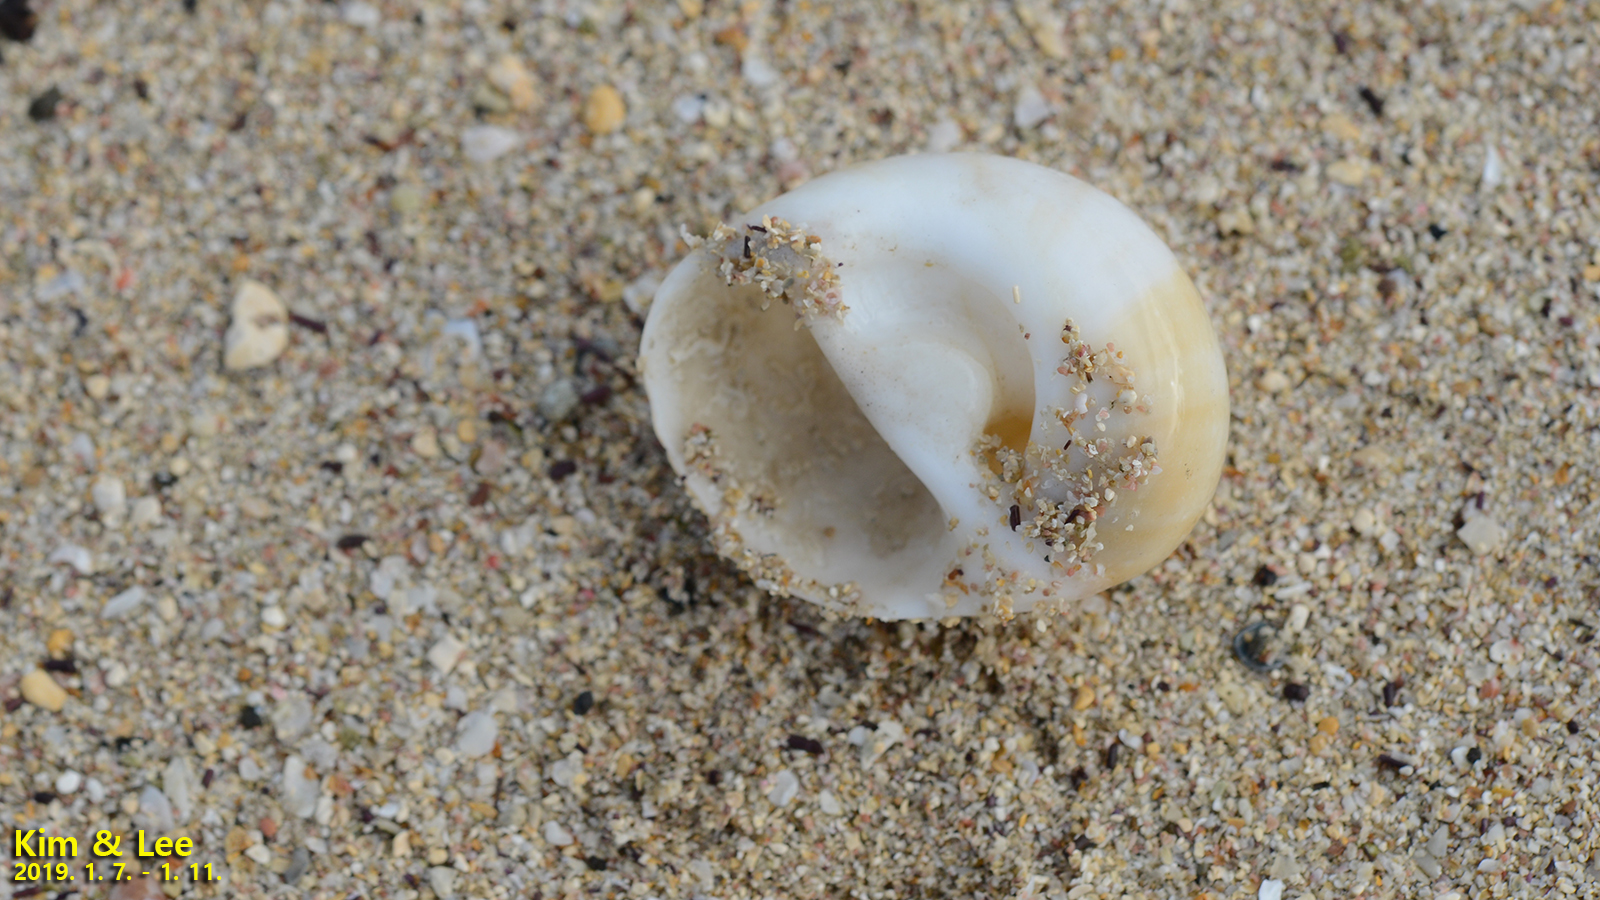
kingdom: Animalia
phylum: Mollusca
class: Gastropoda
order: Littorinimorpha
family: Naticidae
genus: Polinices
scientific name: Polinices sagamiensis
